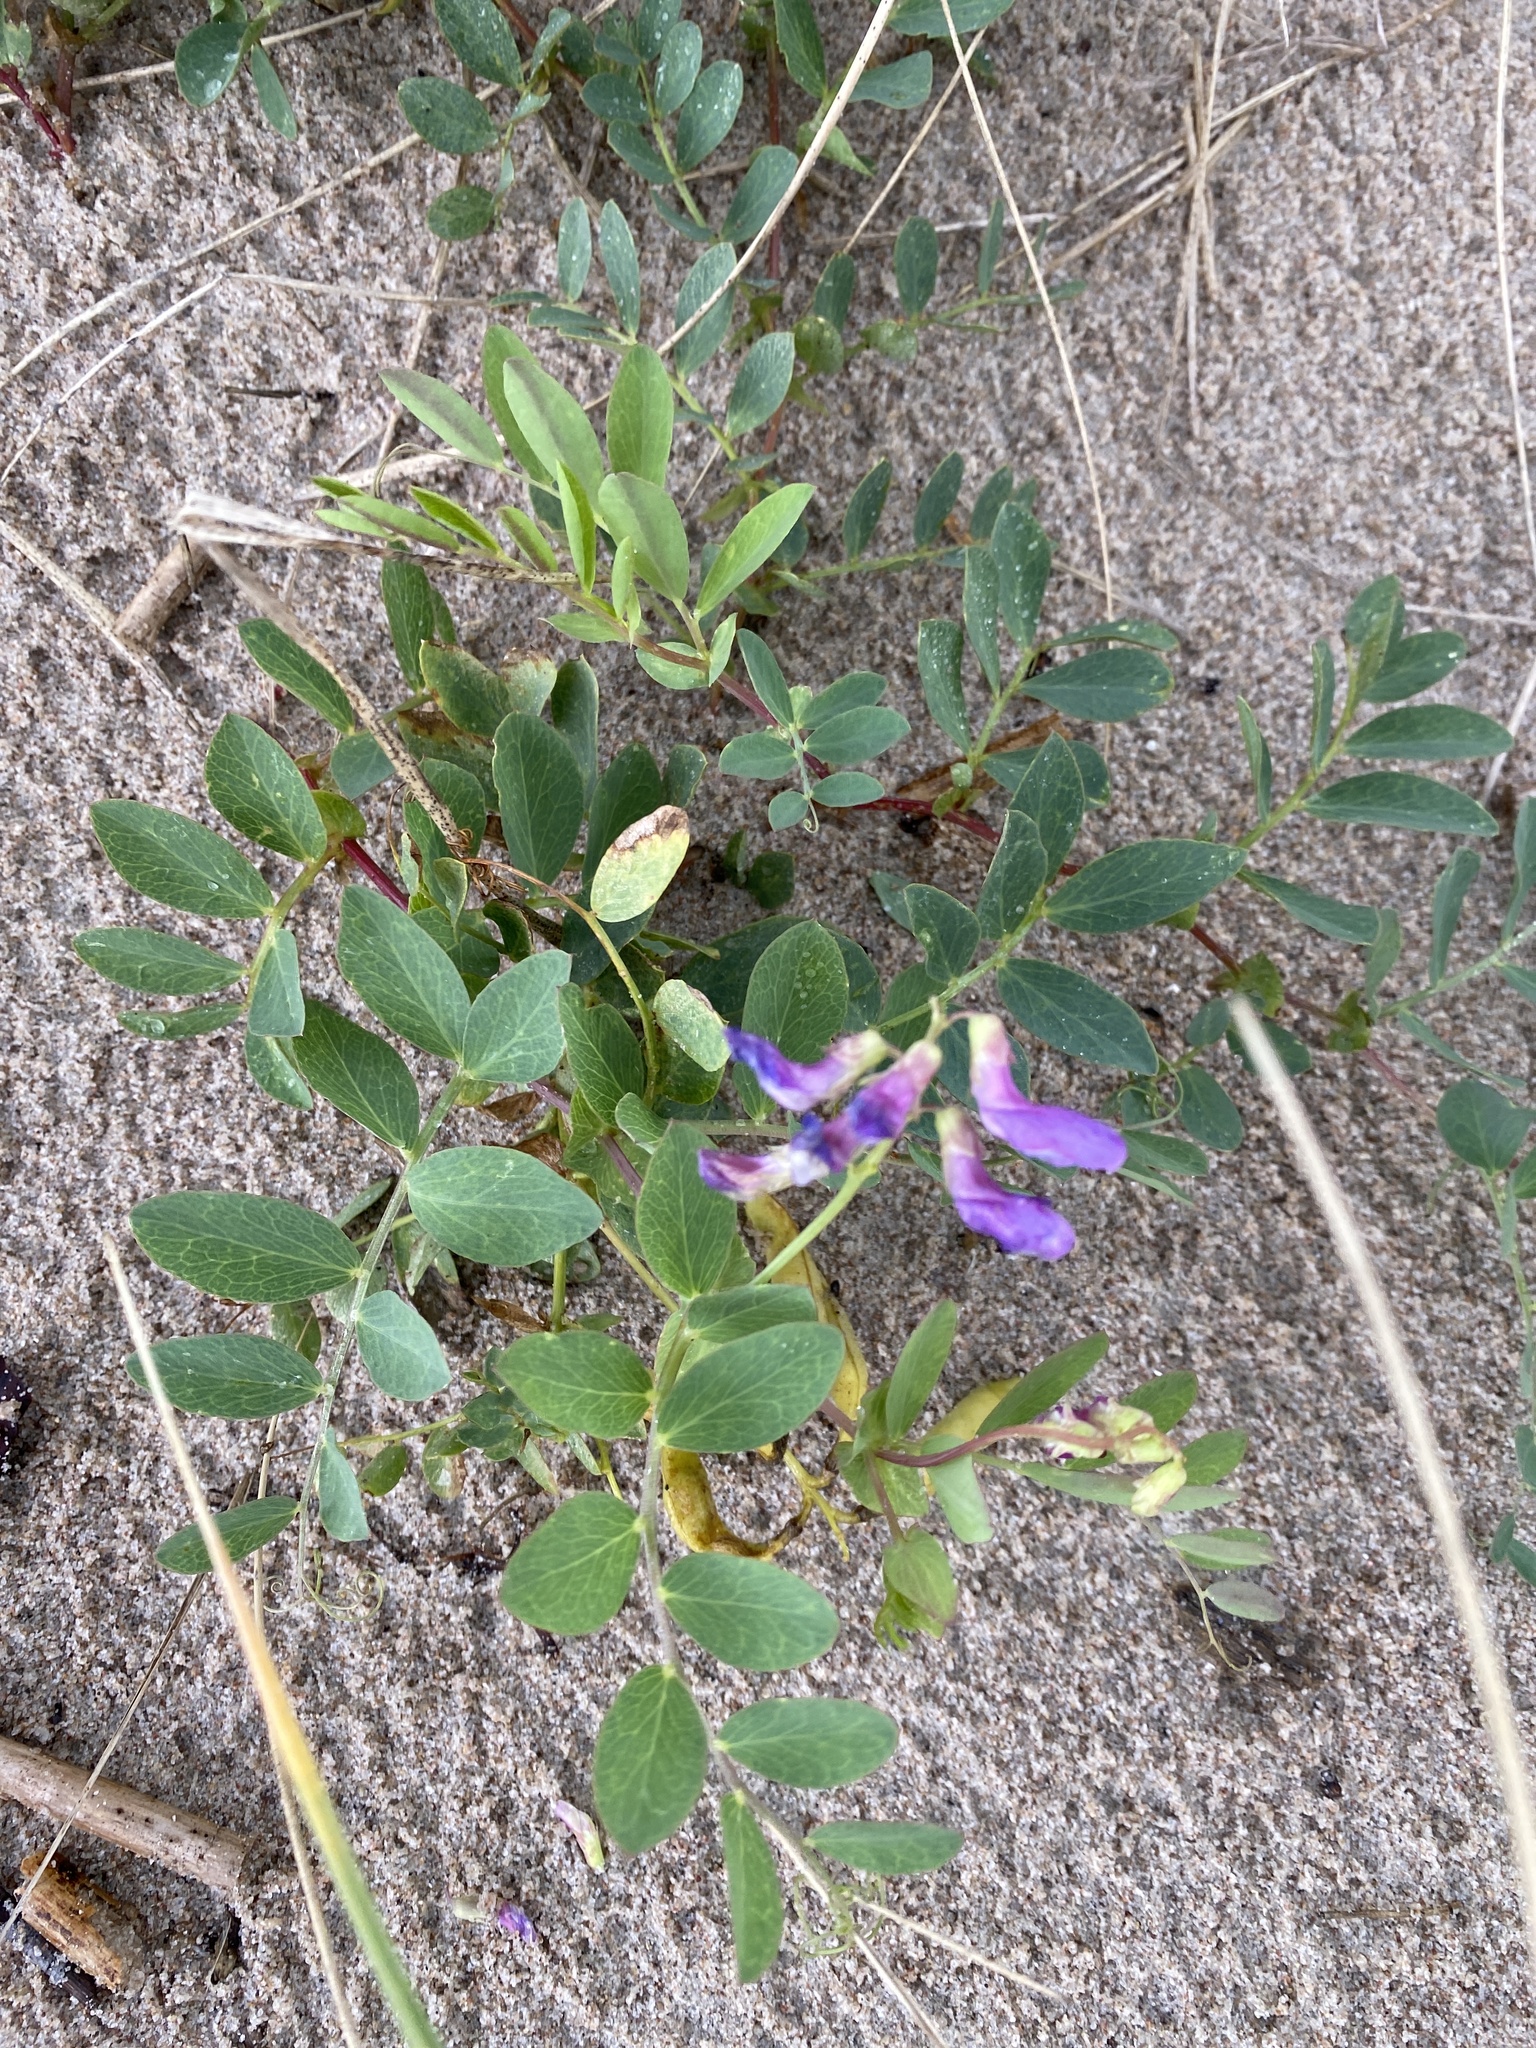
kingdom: Plantae
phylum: Tracheophyta
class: Magnoliopsida
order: Fabales
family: Fabaceae
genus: Lathyrus
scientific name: Lathyrus japonicus
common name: Sea pea
